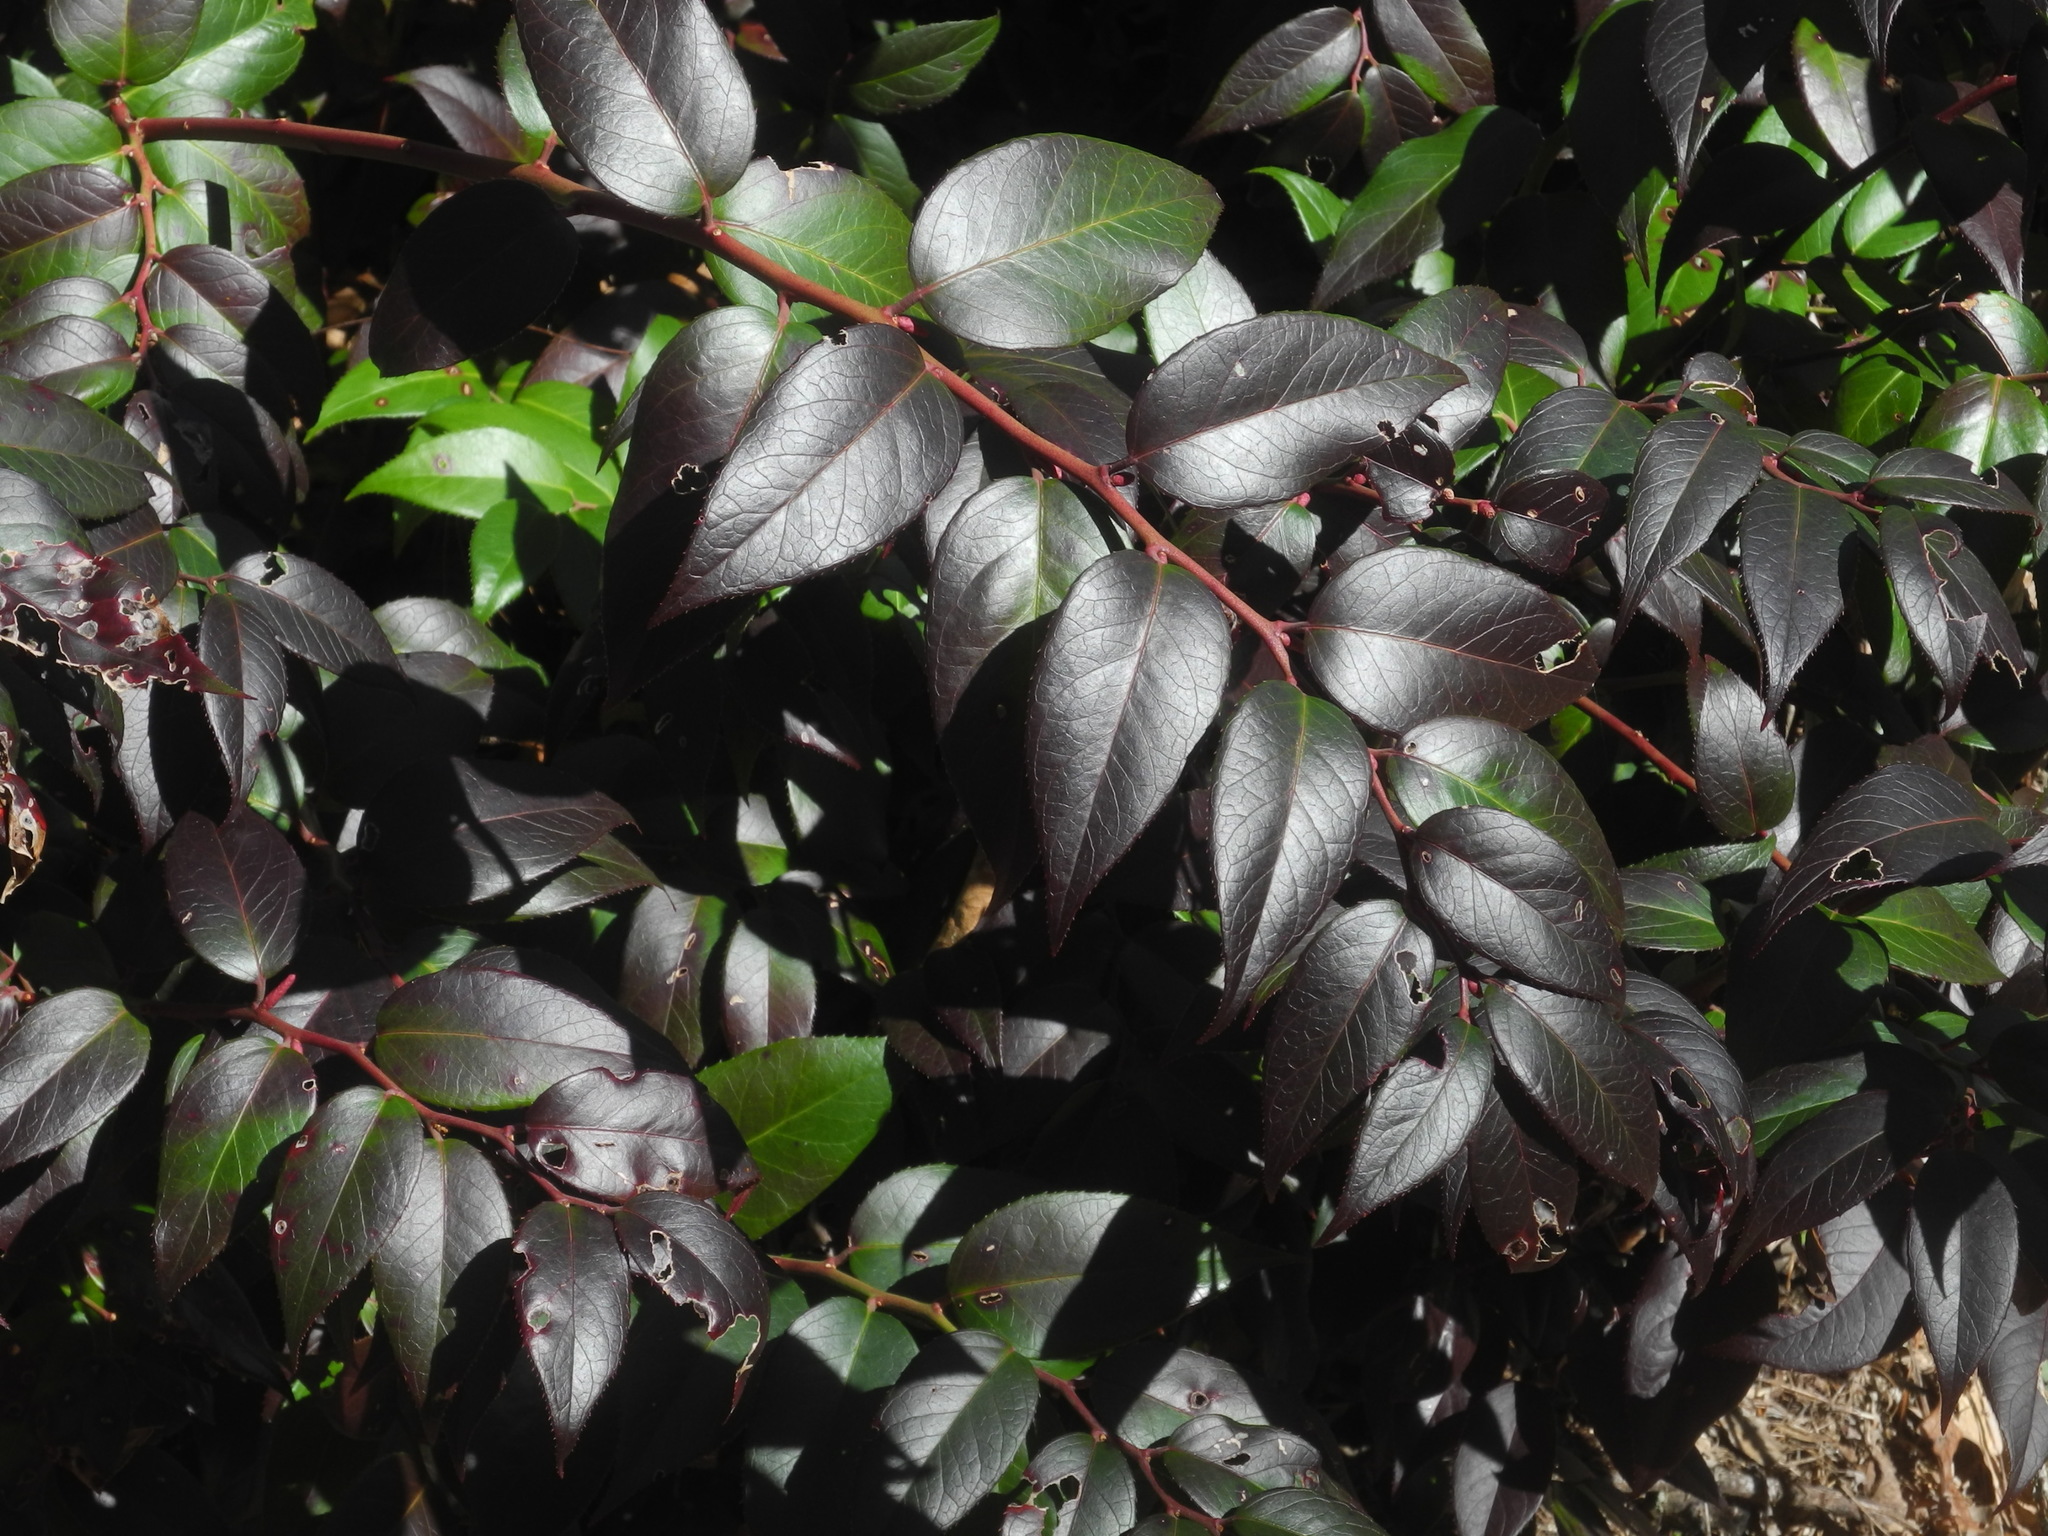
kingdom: Plantae
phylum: Tracheophyta
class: Magnoliopsida
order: Ericales
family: Ericaceae
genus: Leucothoe
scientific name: Leucothoe fontanesiana
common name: Fetterbush
